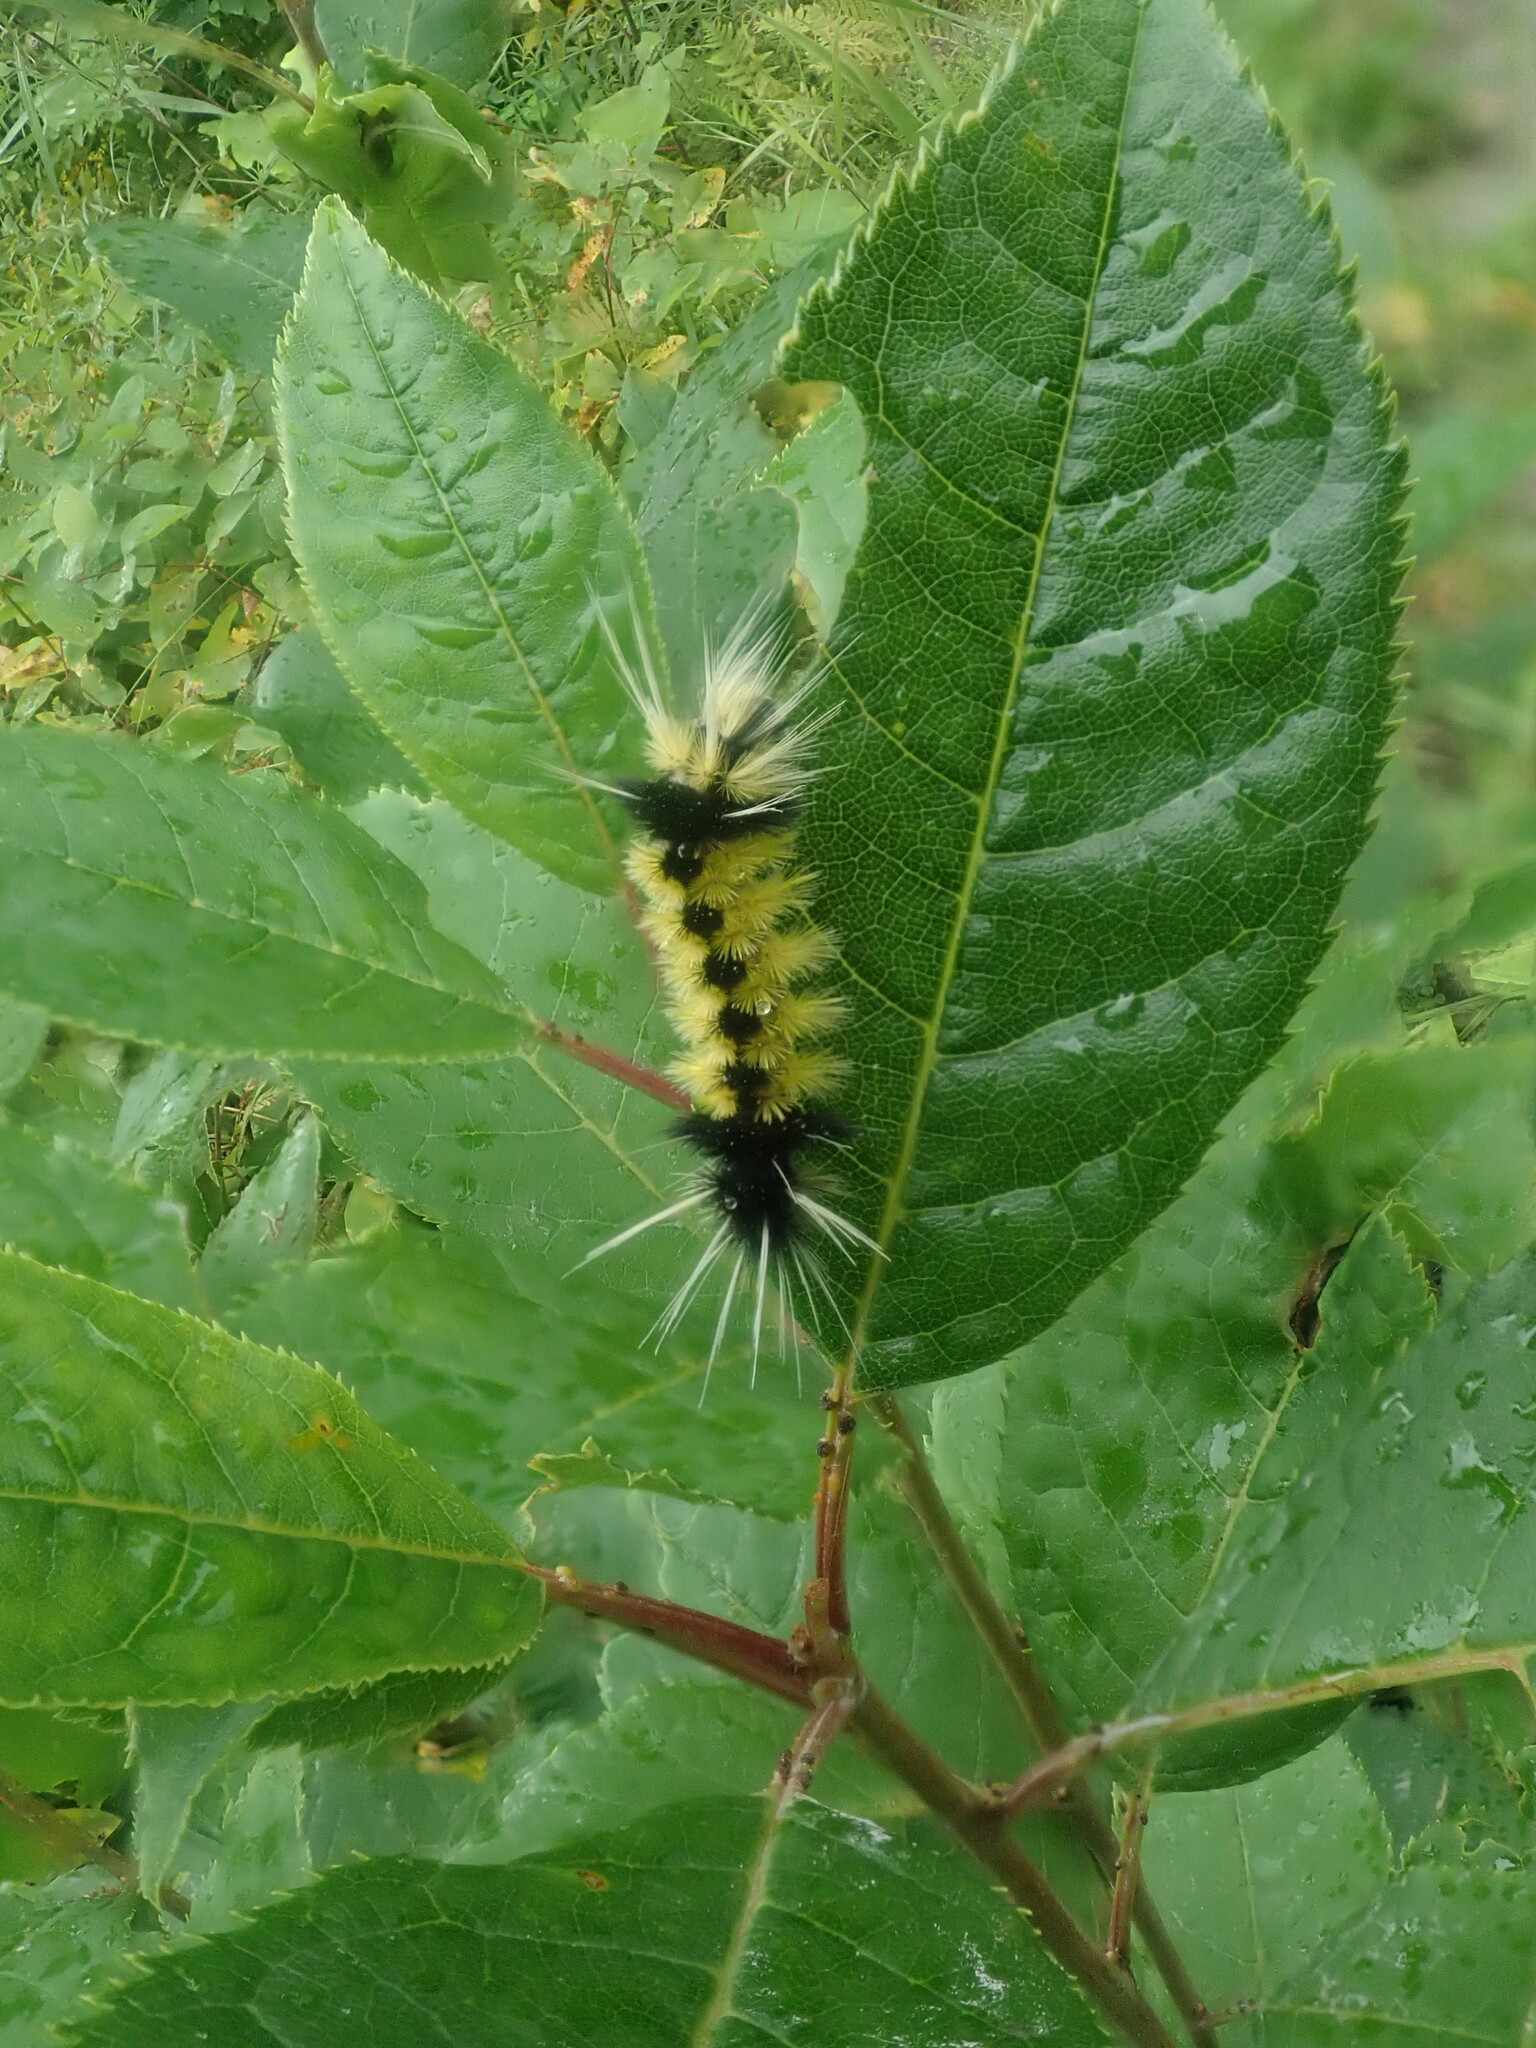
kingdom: Animalia
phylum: Arthropoda
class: Insecta
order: Lepidoptera
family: Erebidae
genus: Lophocampa
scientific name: Lophocampa maculata
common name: Spotted tussock moth
